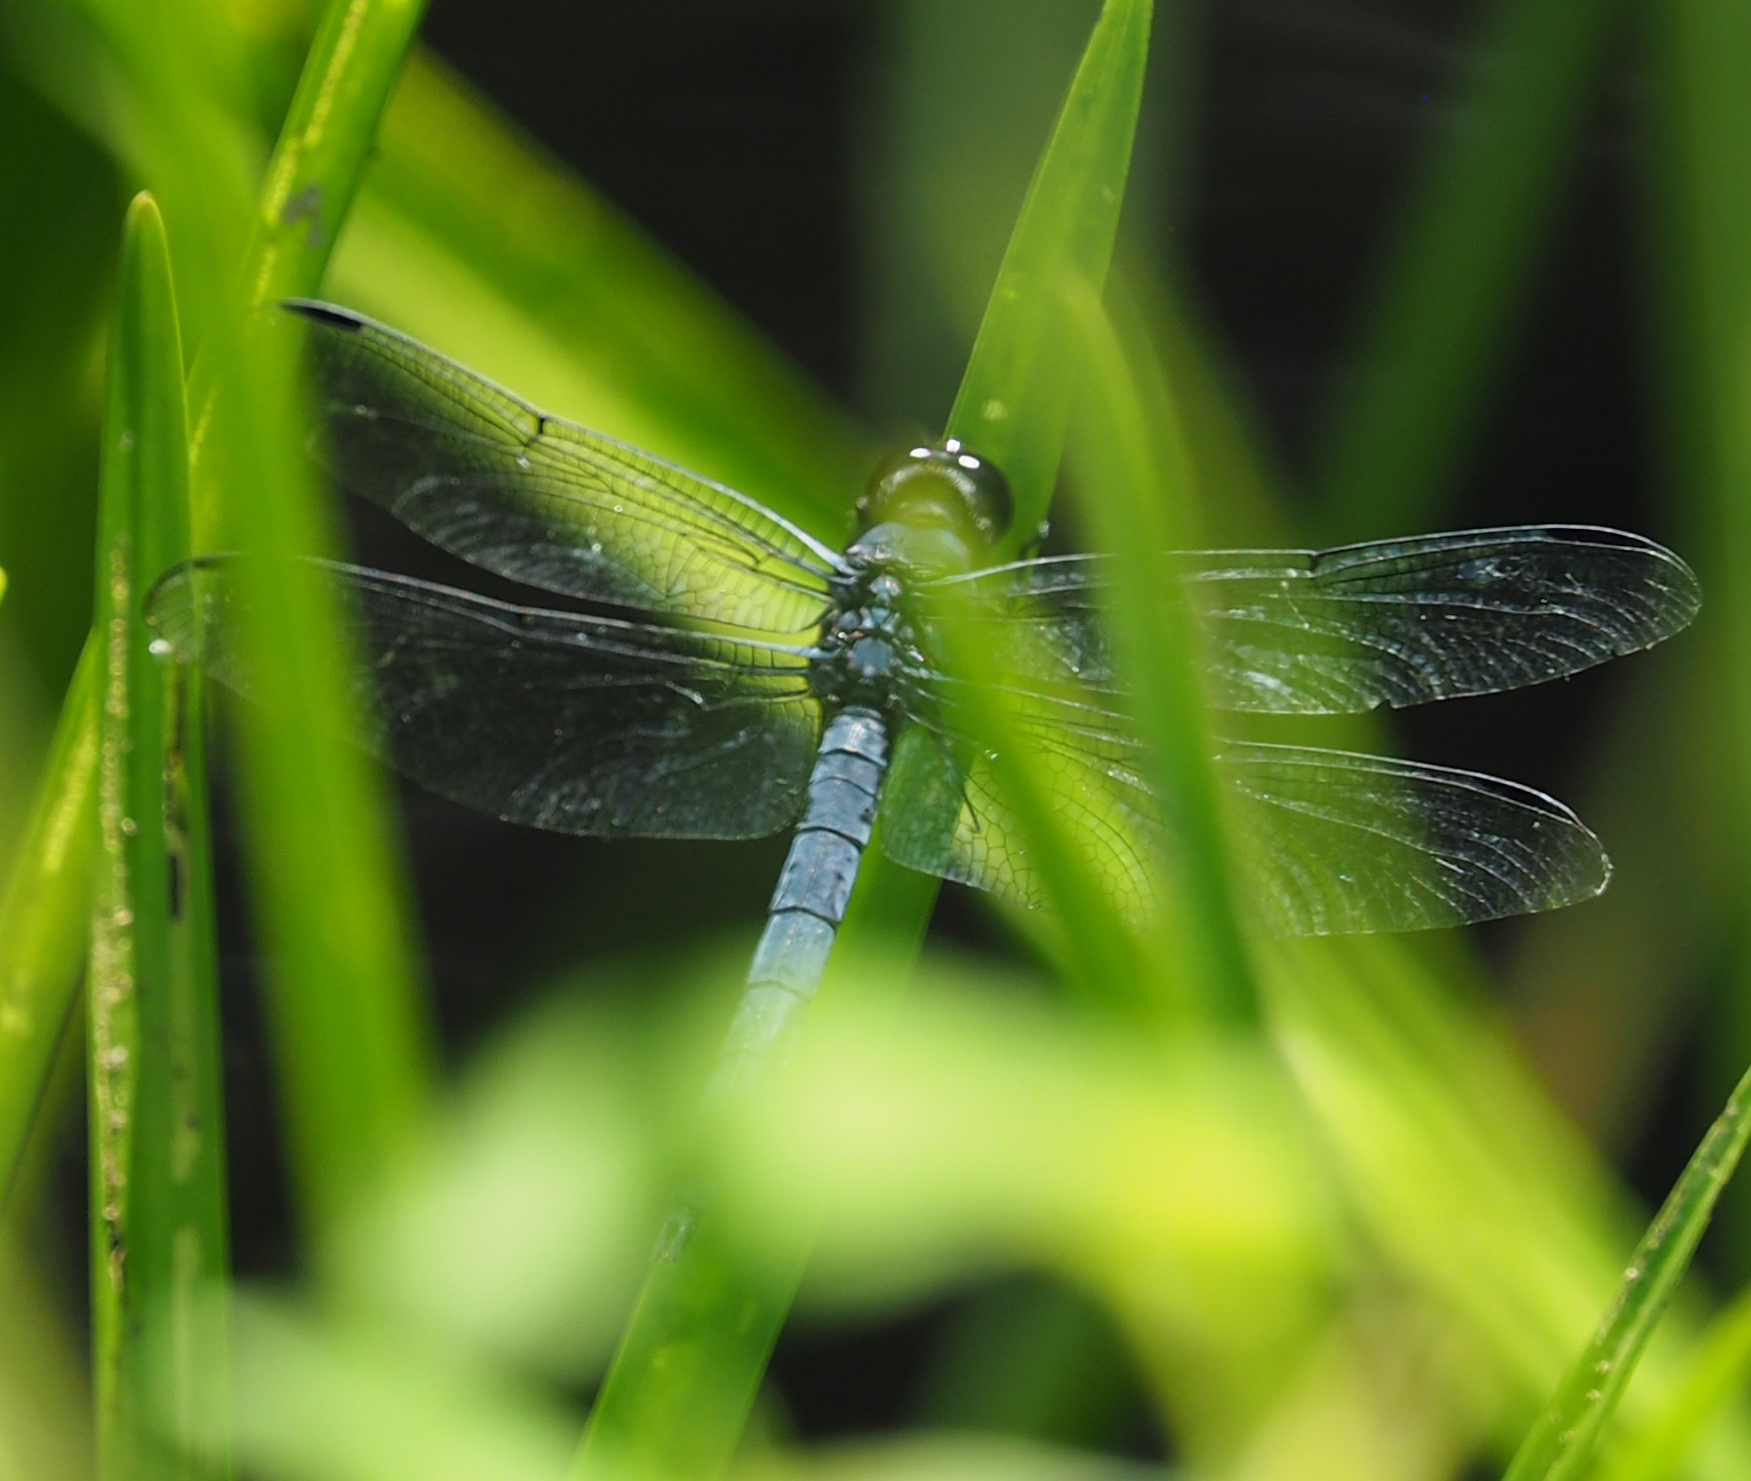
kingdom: Animalia
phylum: Arthropoda
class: Insecta
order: Odonata
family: Libellulidae
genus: Libellula
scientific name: Libellula incesta
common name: Slaty skimmer
